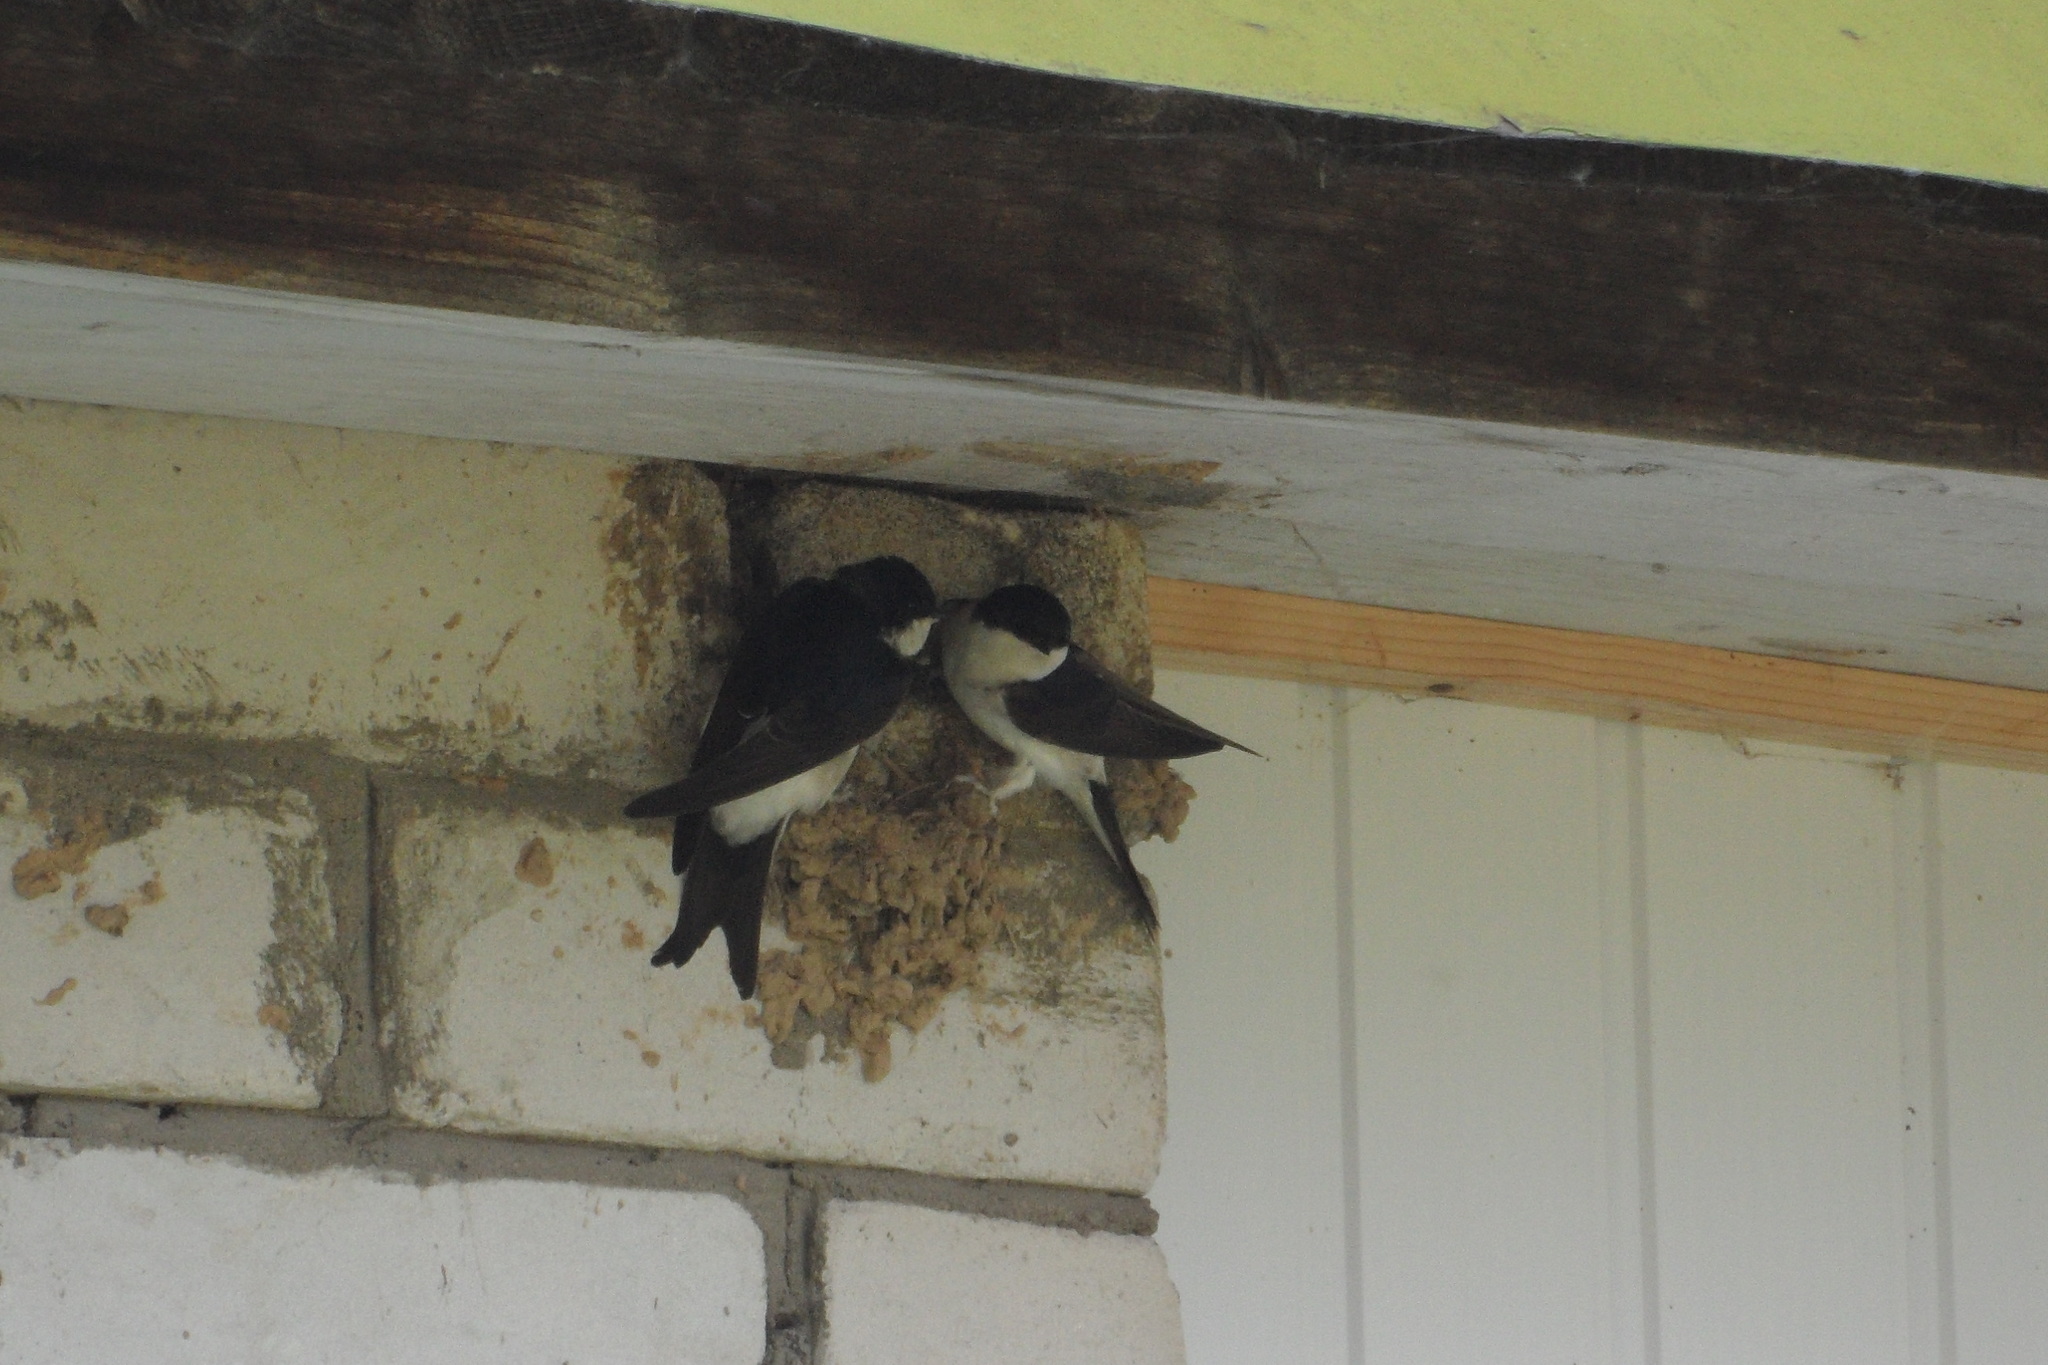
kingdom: Animalia
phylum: Chordata
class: Aves
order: Passeriformes
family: Hirundinidae
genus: Delichon
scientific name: Delichon urbicum
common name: Common house martin
